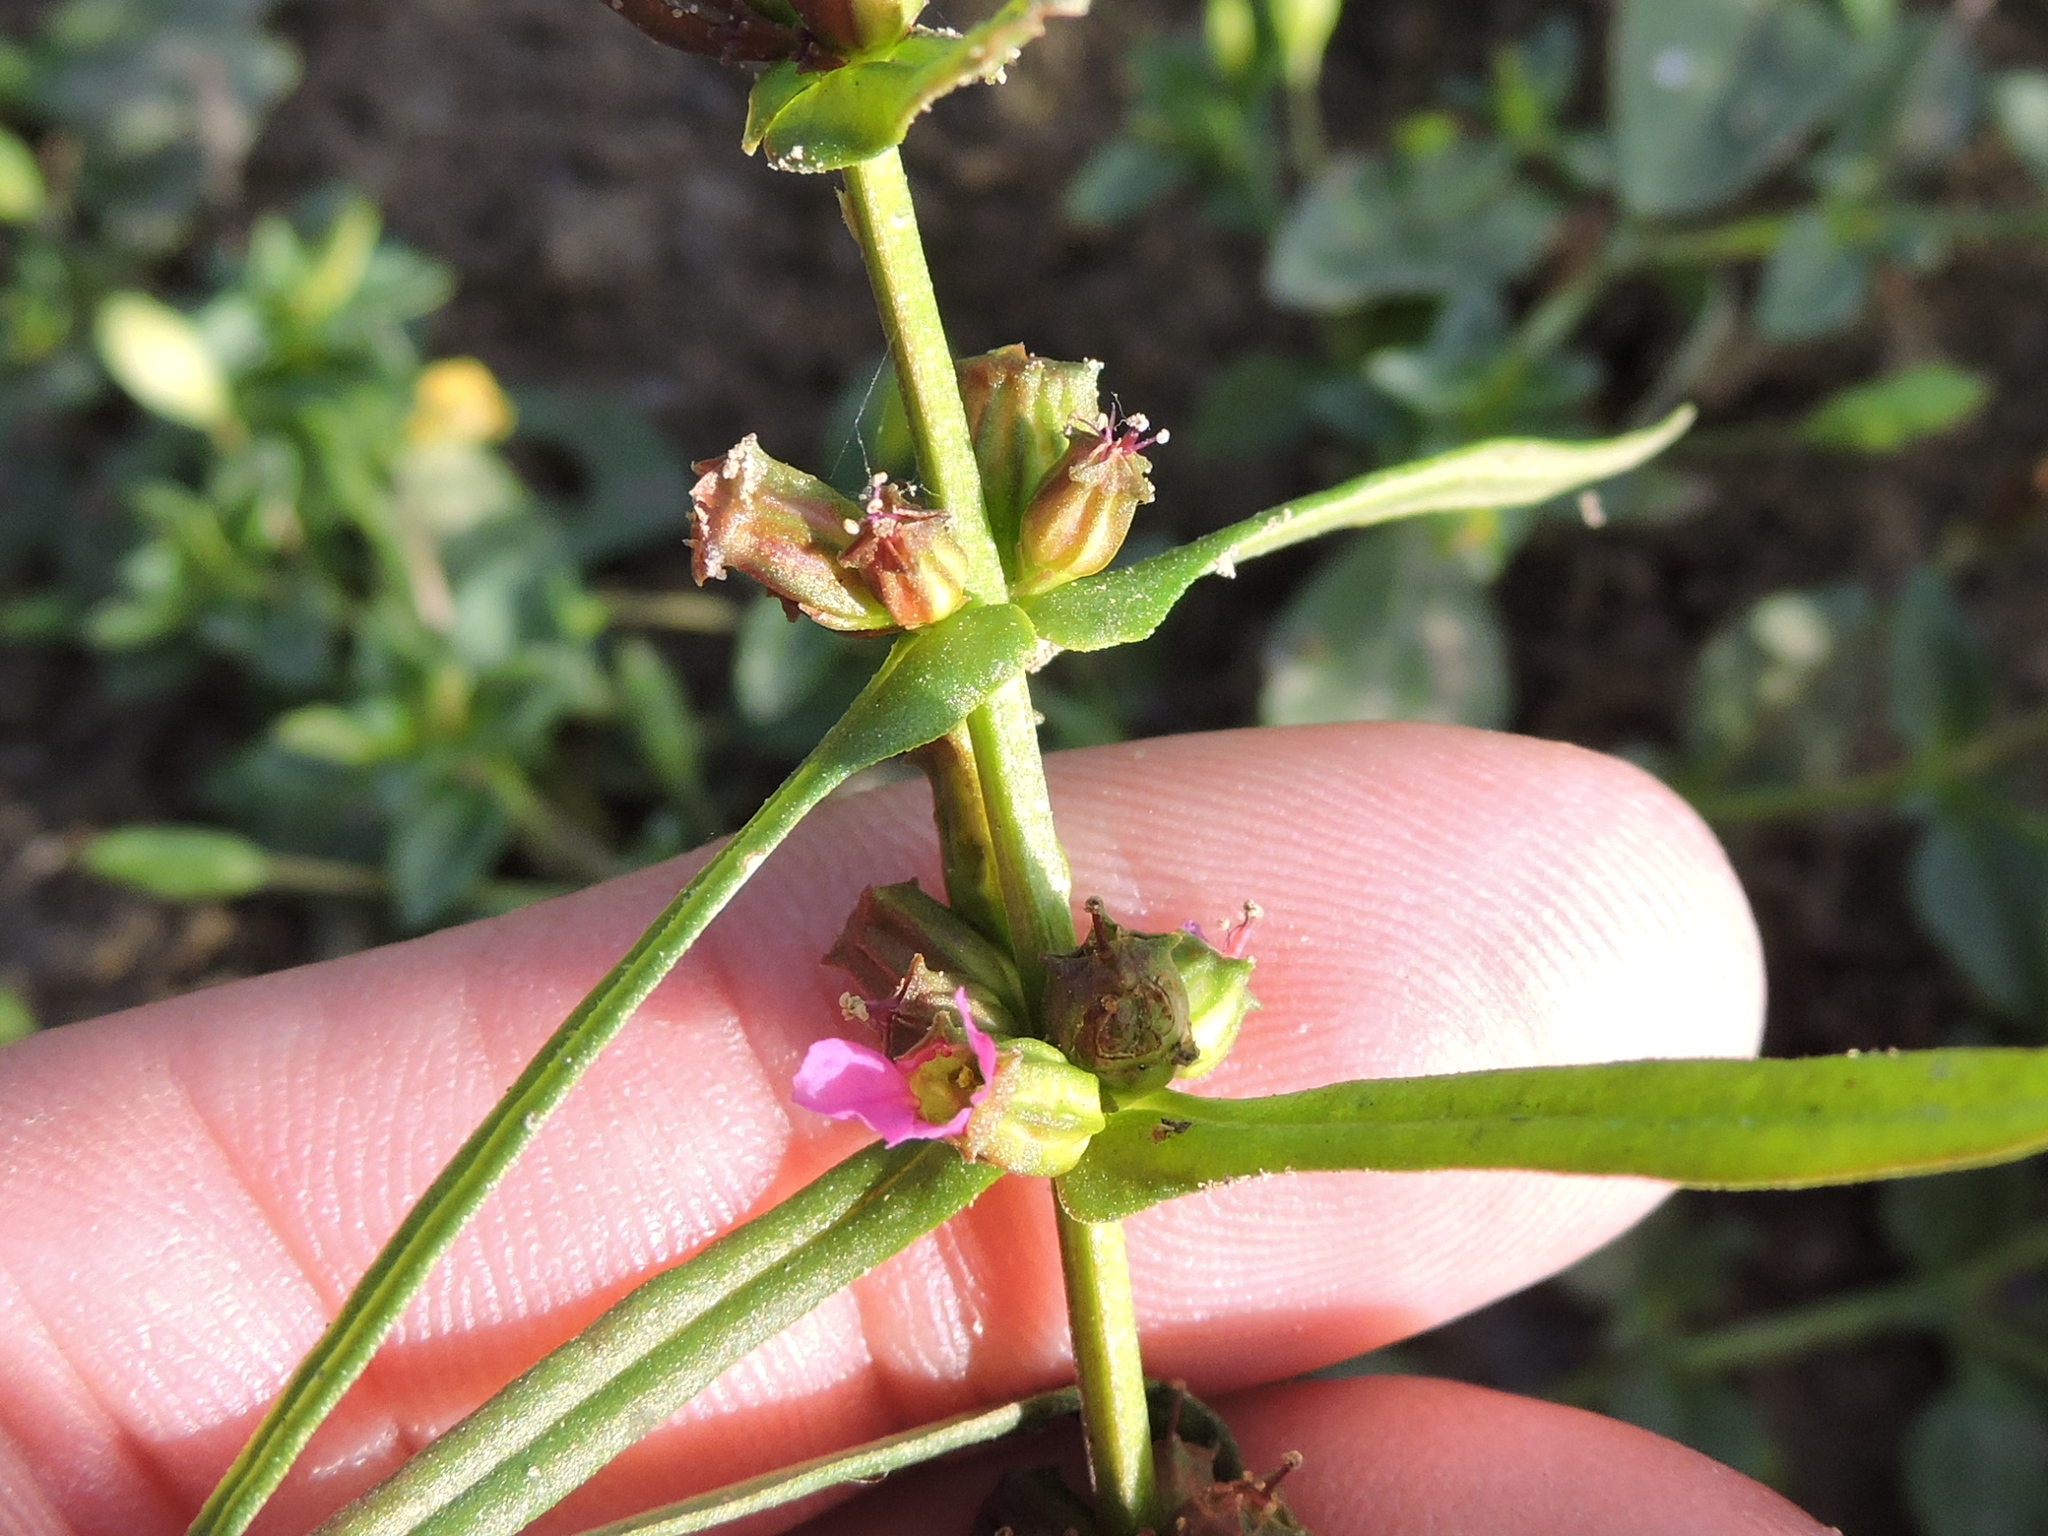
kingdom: Plantae
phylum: Tracheophyta
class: Magnoliopsida
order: Myrtales
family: Lythraceae
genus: Ammannia
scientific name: Ammannia coccinea
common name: Valley redstem
